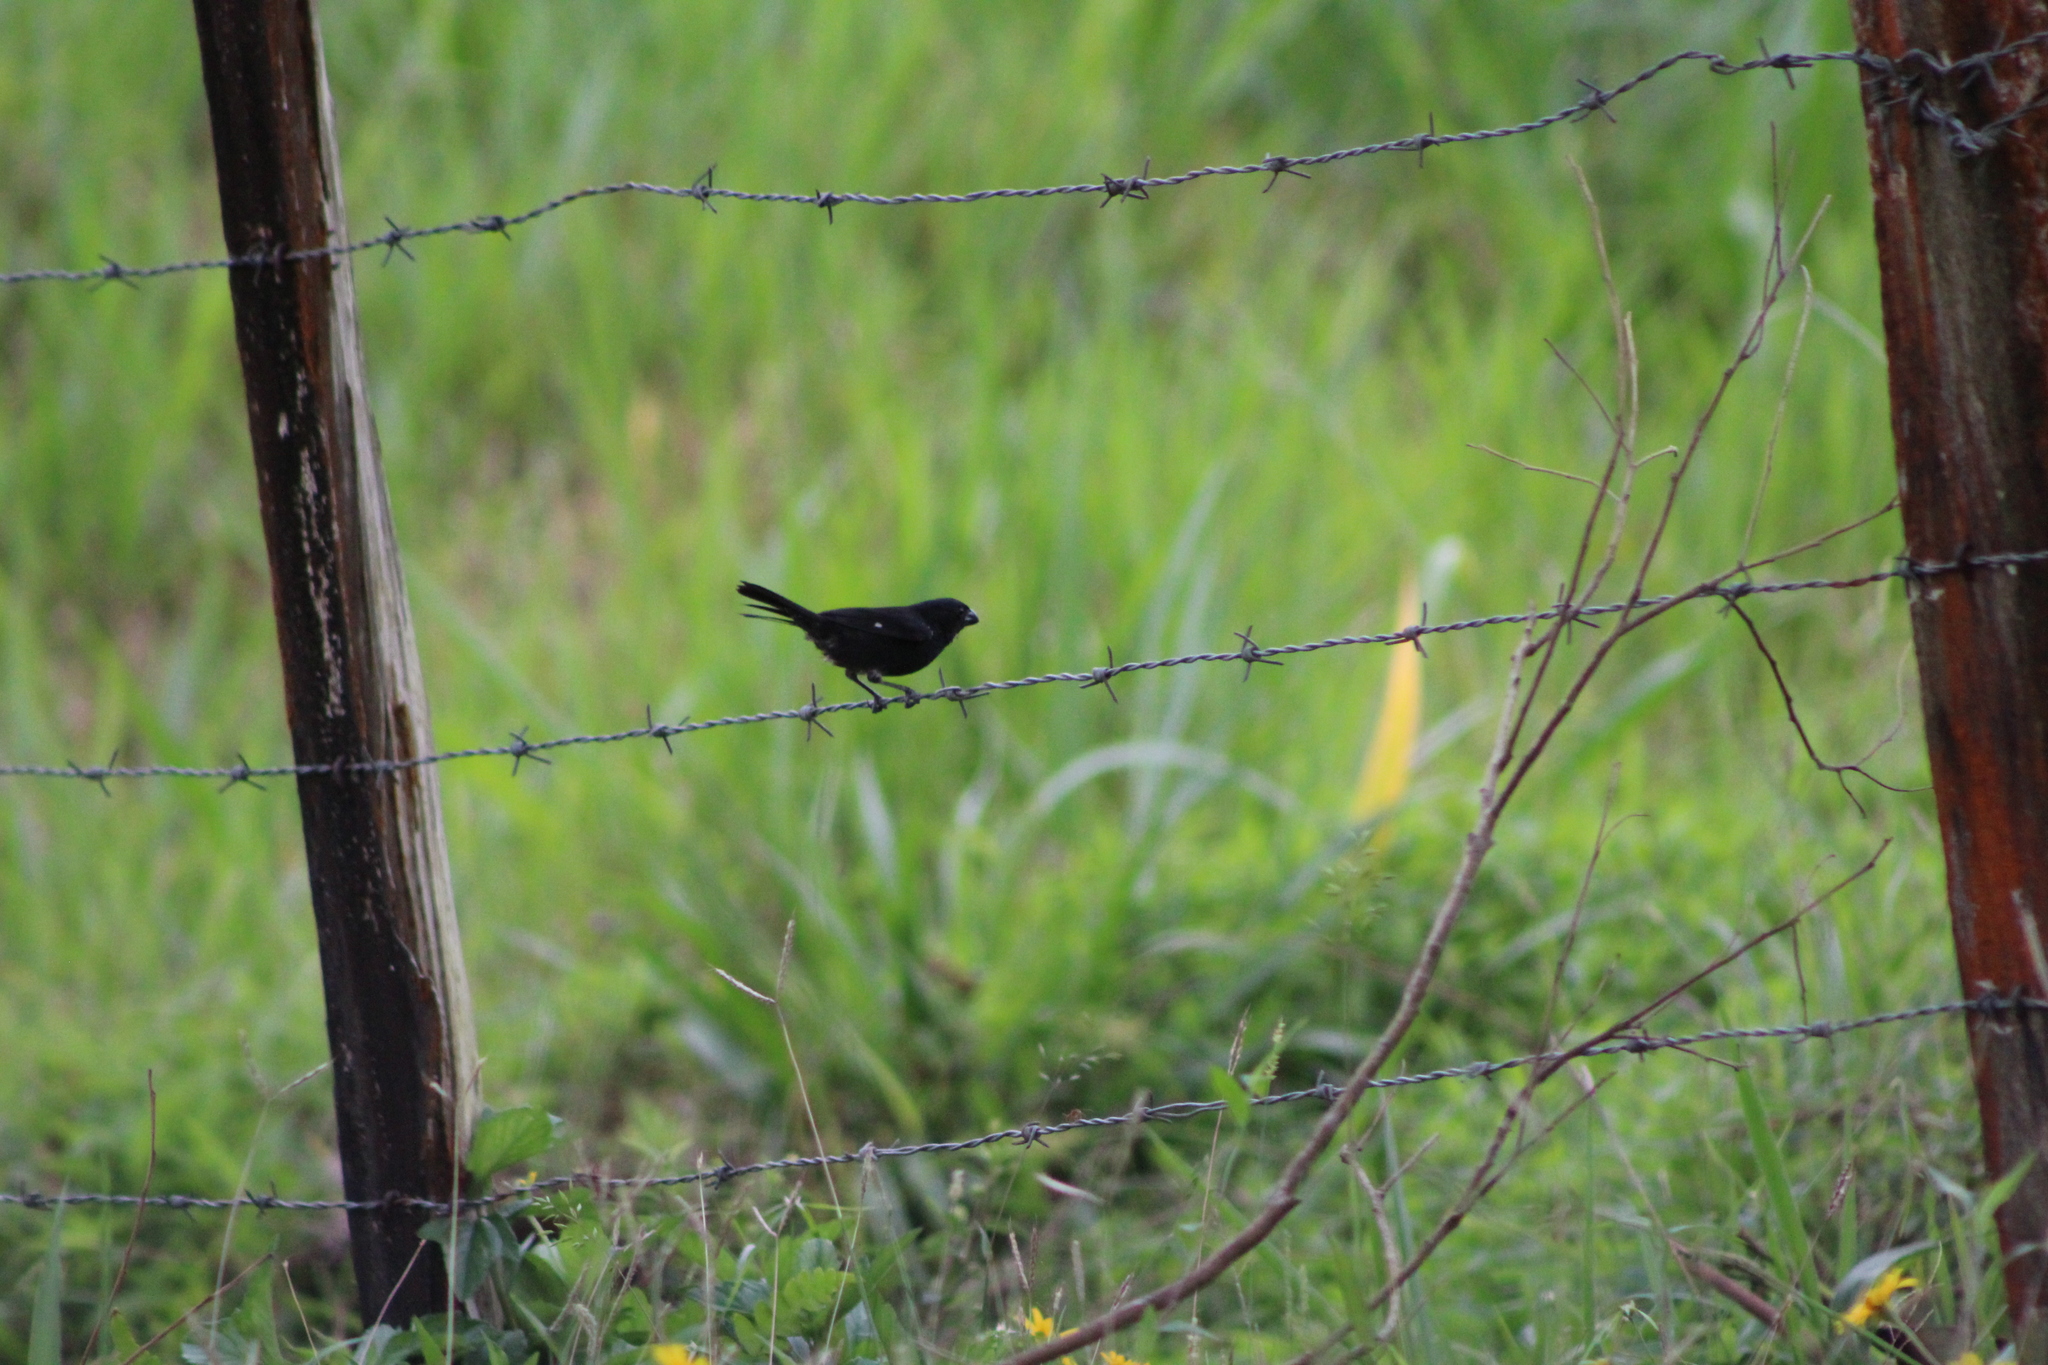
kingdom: Animalia
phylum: Chordata
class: Aves
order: Passeriformes
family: Thraupidae
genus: Sporophila
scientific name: Sporophila corvina
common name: Variable seedeater
